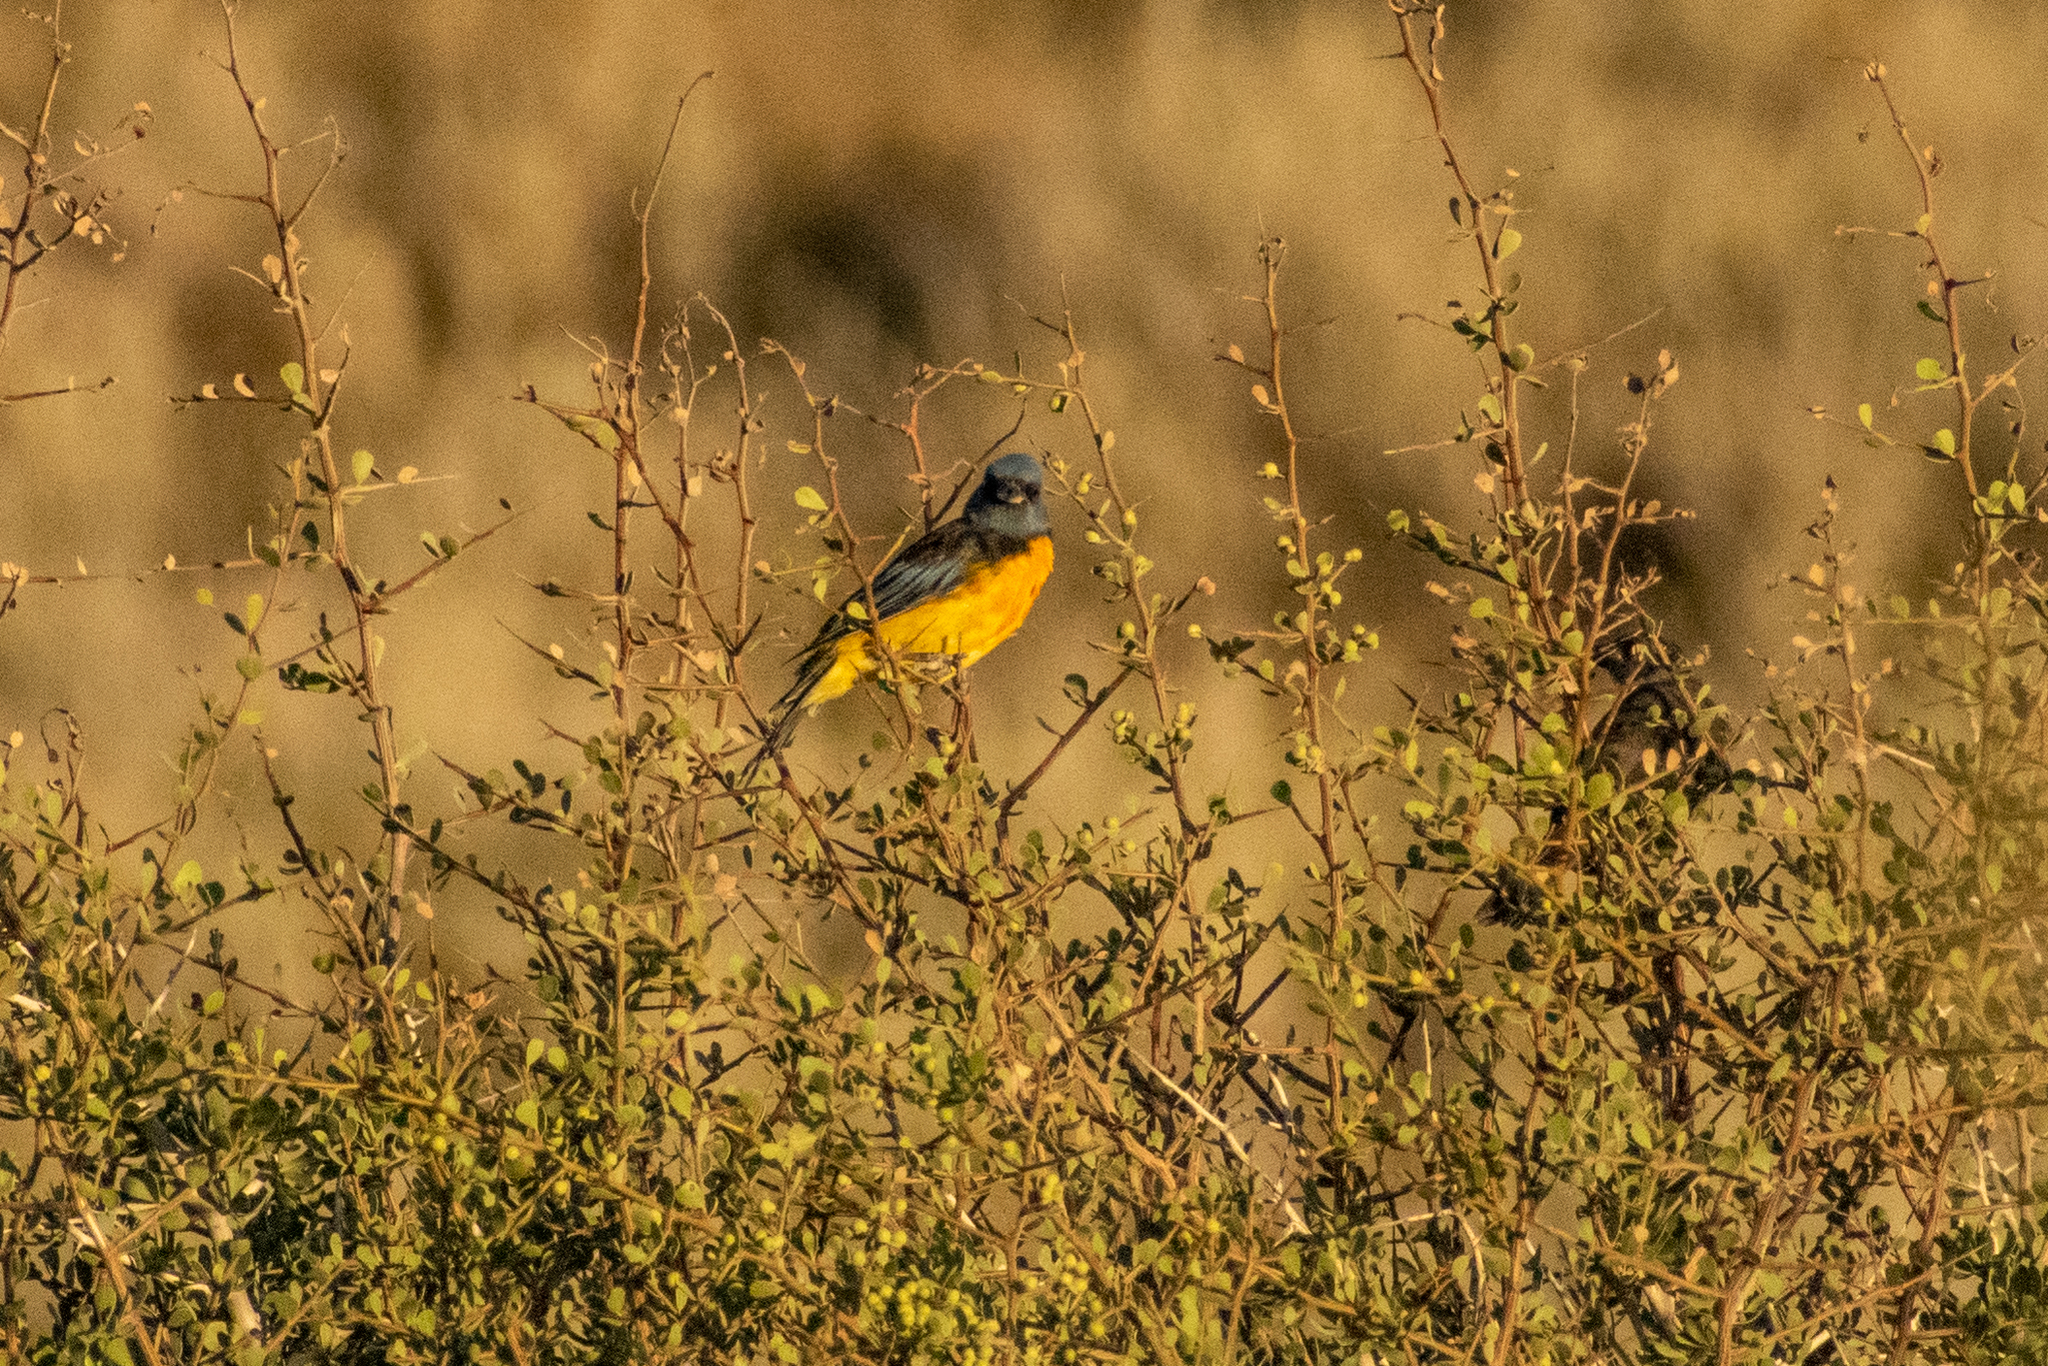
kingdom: Animalia
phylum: Chordata
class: Aves
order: Passeriformes
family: Thraupidae
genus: Rauenia
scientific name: Rauenia bonariensis
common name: Blue-and-yellow tanager
